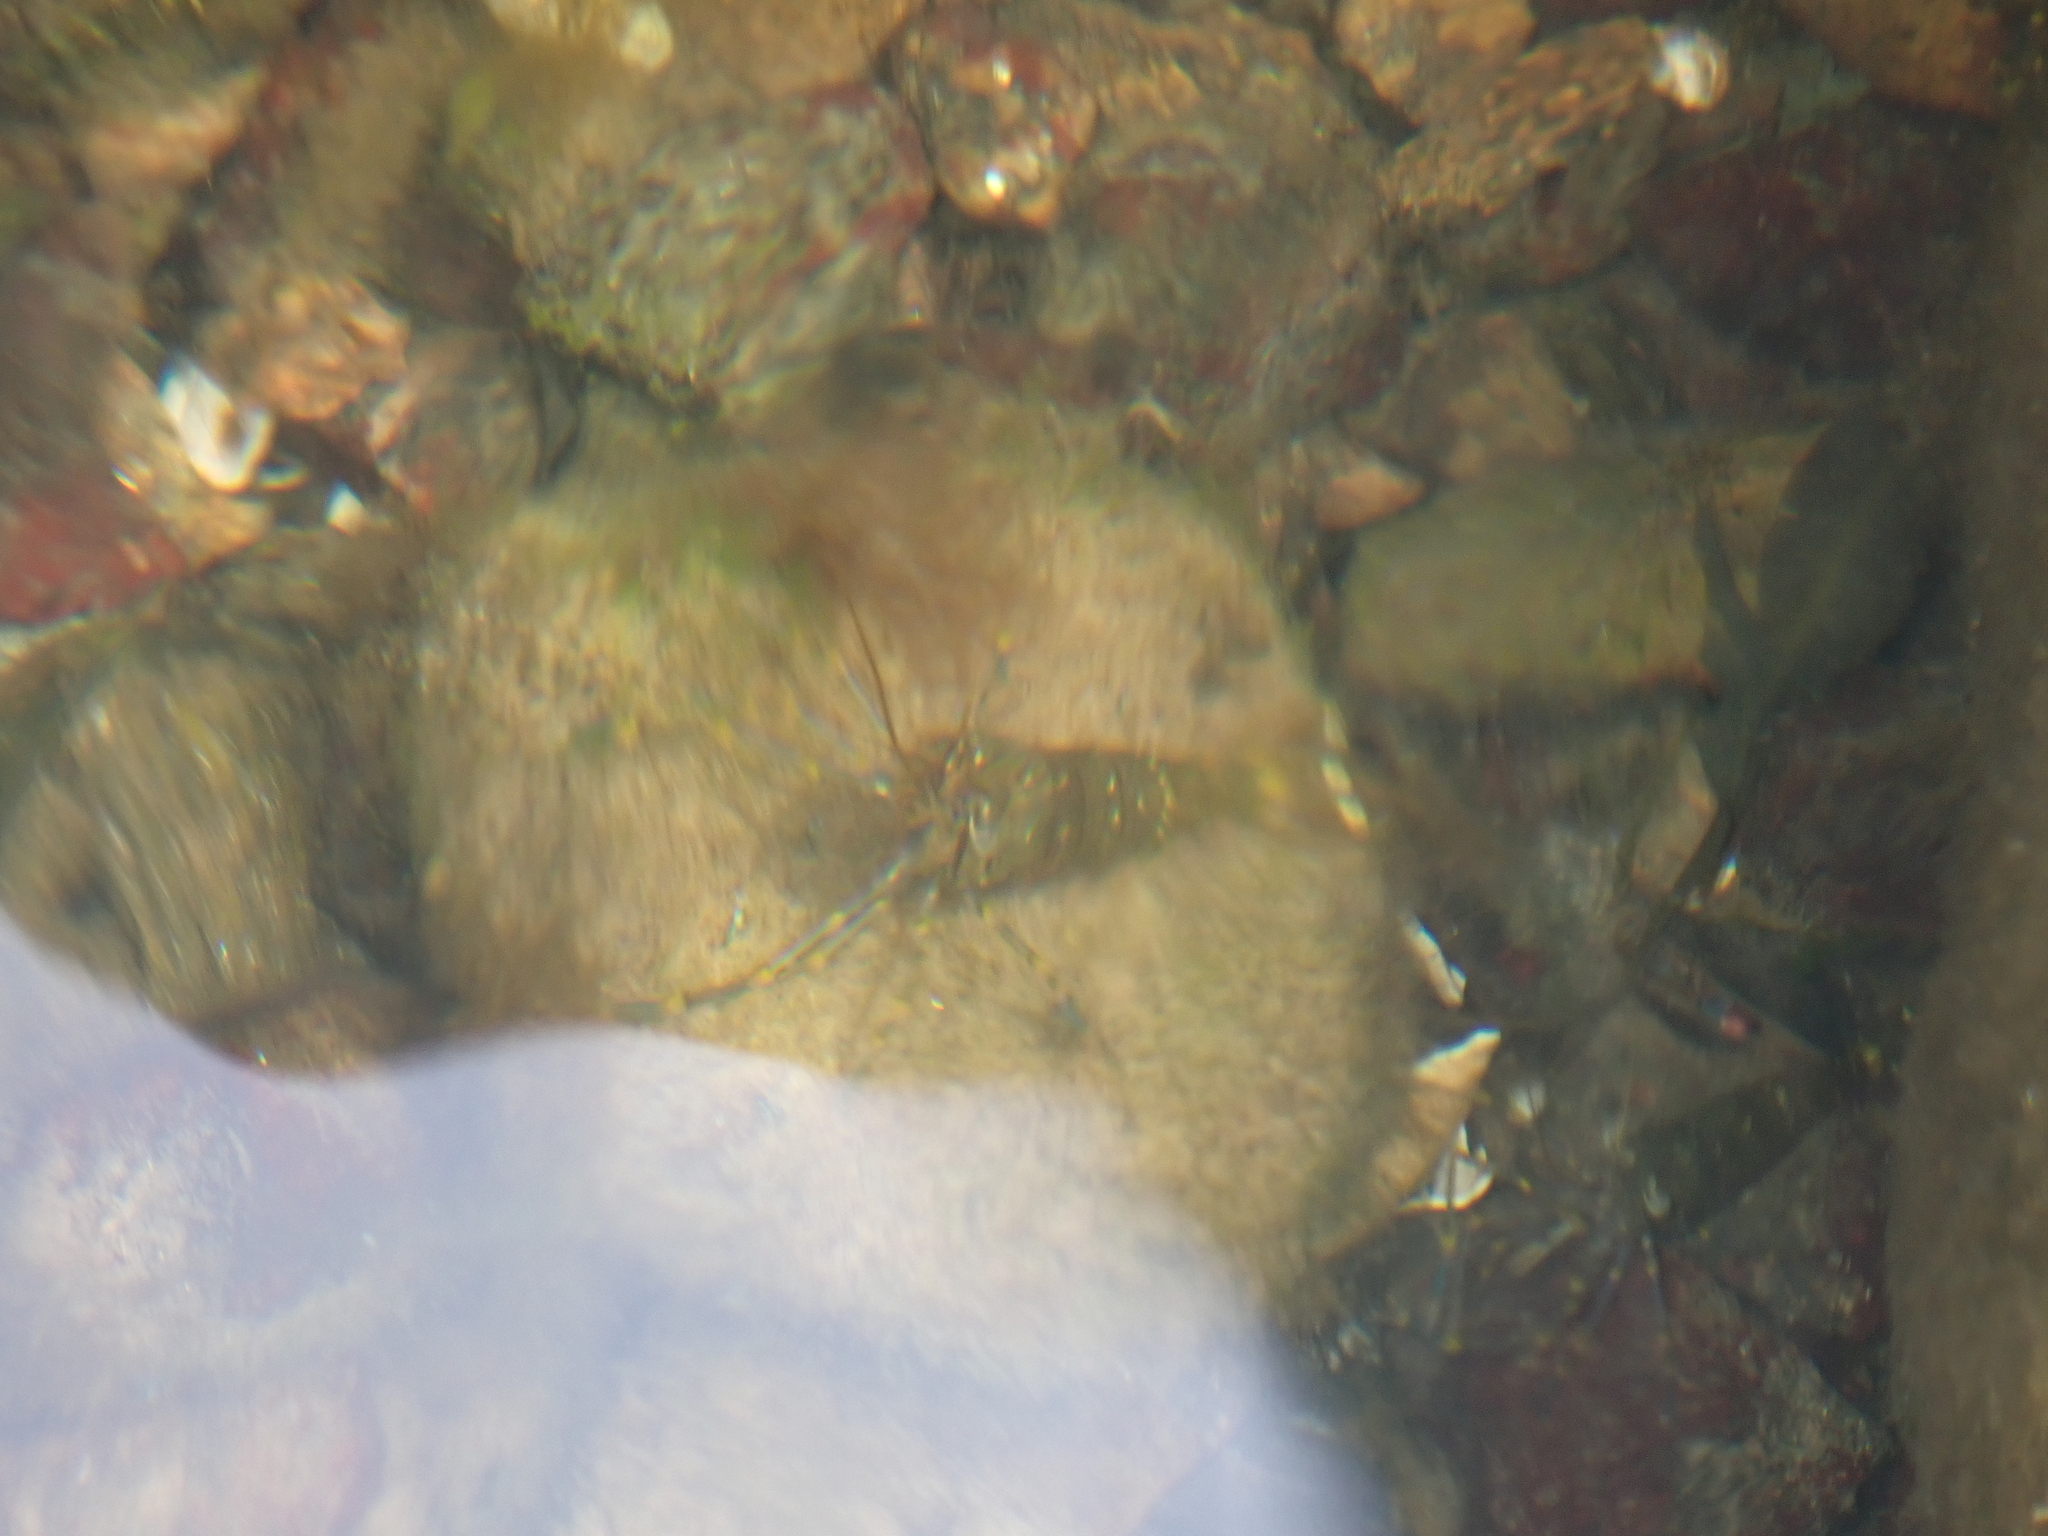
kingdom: Animalia
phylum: Arthropoda
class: Malacostraca
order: Decapoda
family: Palaemonidae
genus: Palaemon
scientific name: Palaemon elegans
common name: Grass prawm
